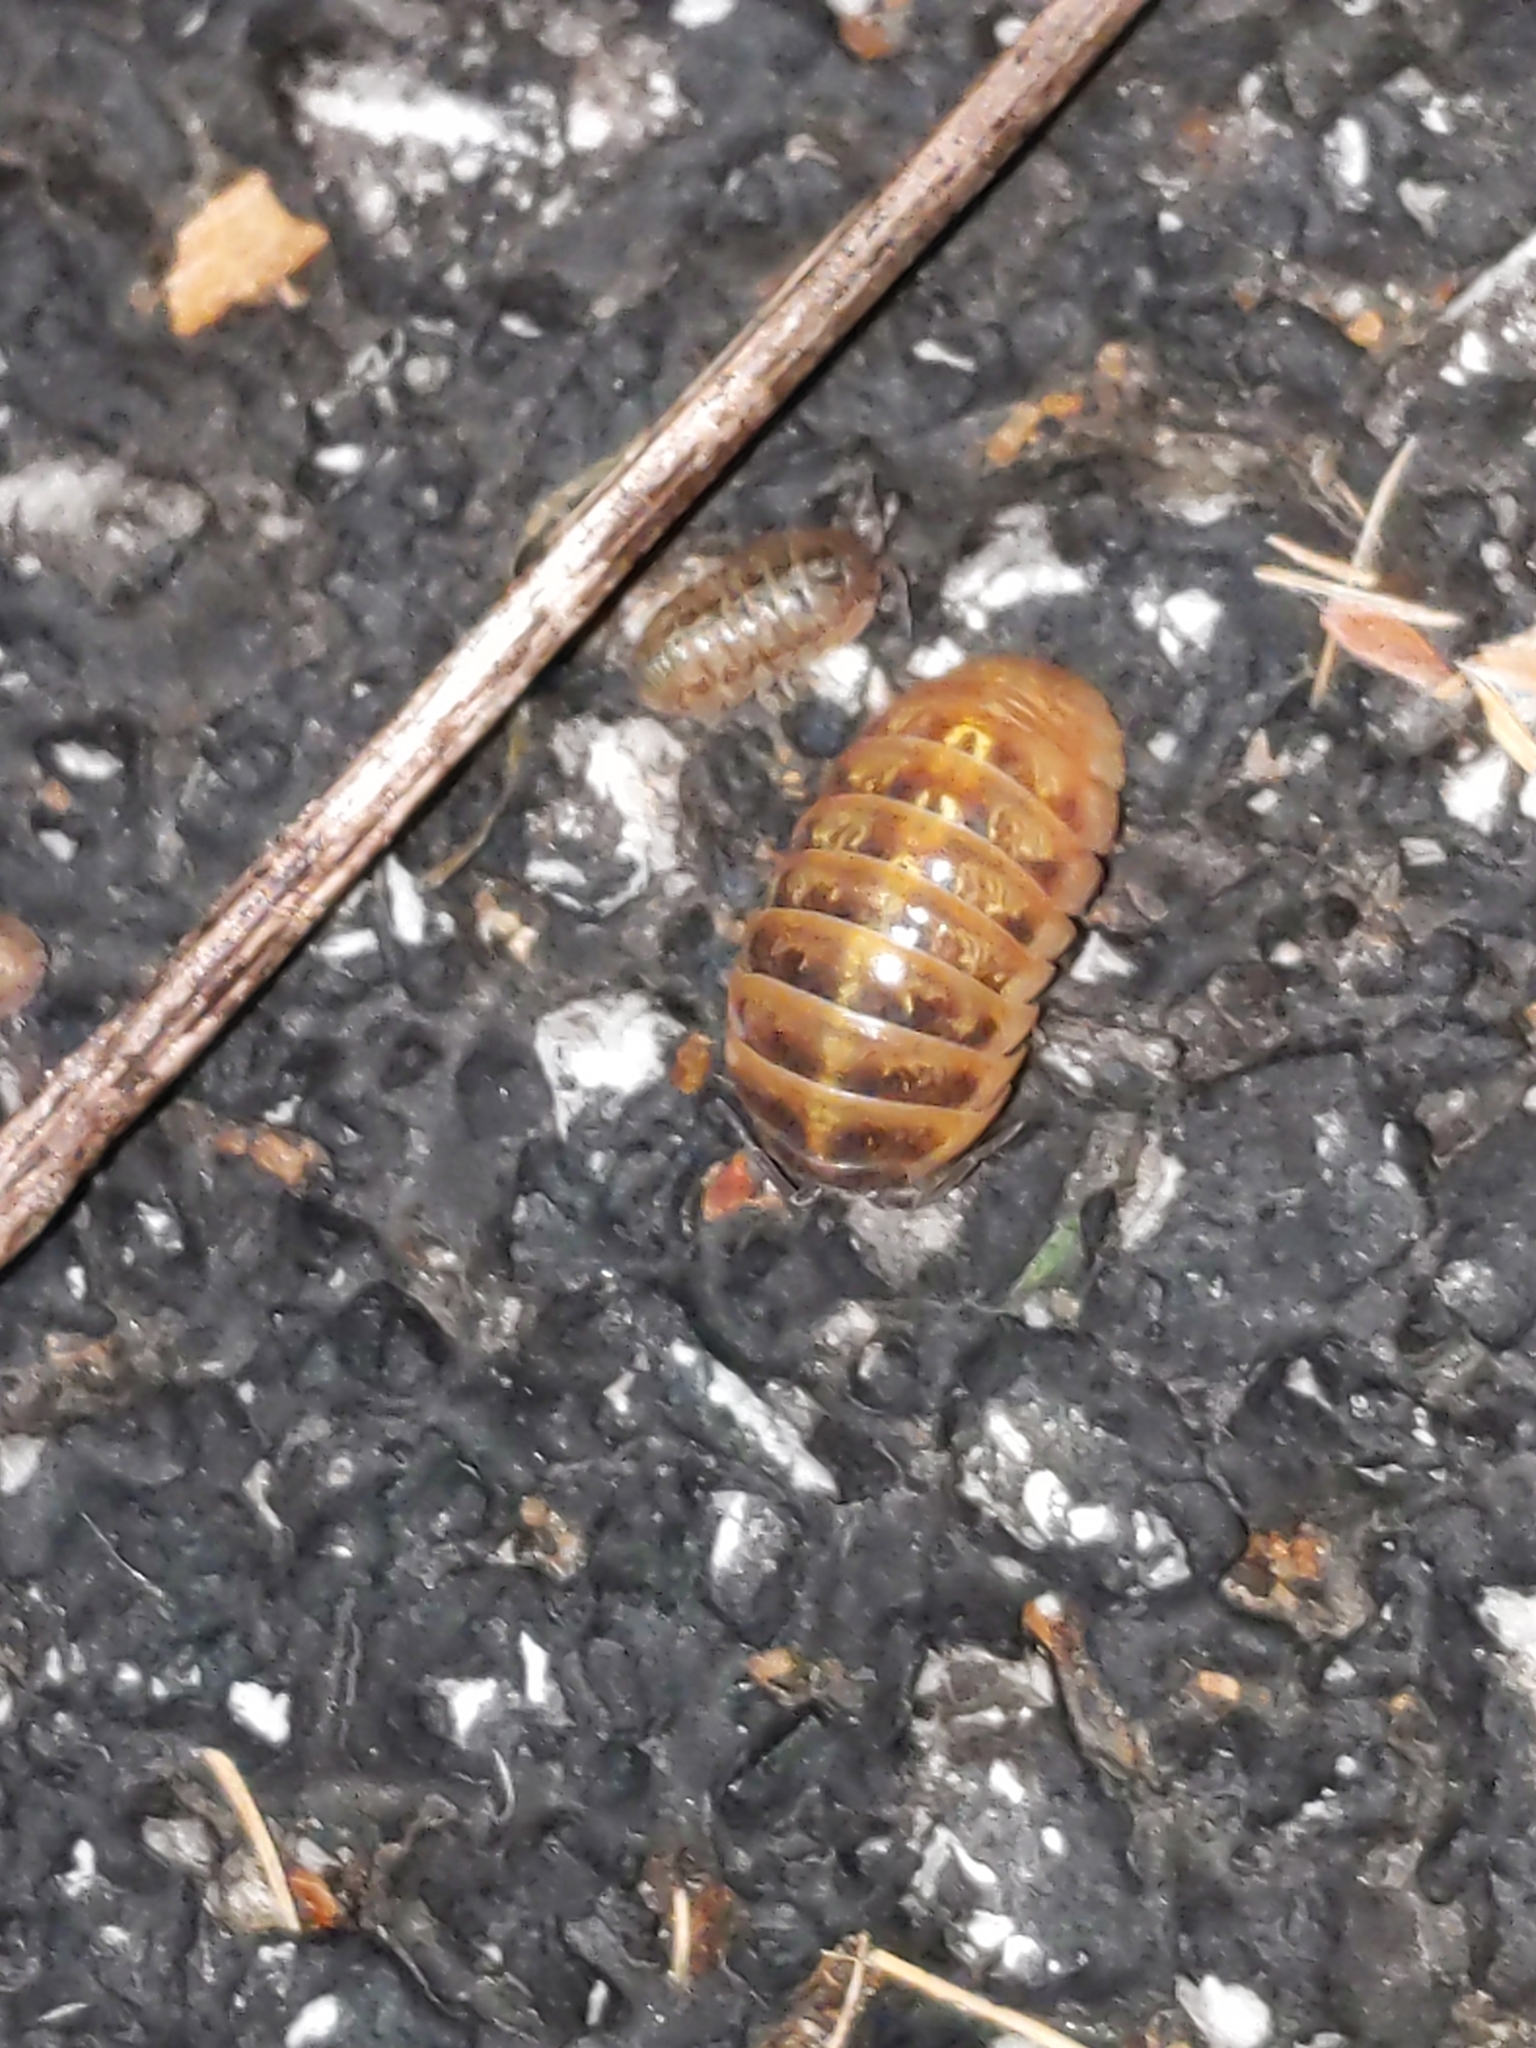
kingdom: Animalia
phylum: Arthropoda
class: Malacostraca
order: Isopoda
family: Armadillidiidae
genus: Armadillidium
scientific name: Armadillidium vulgare
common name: Common pill woodlouse
